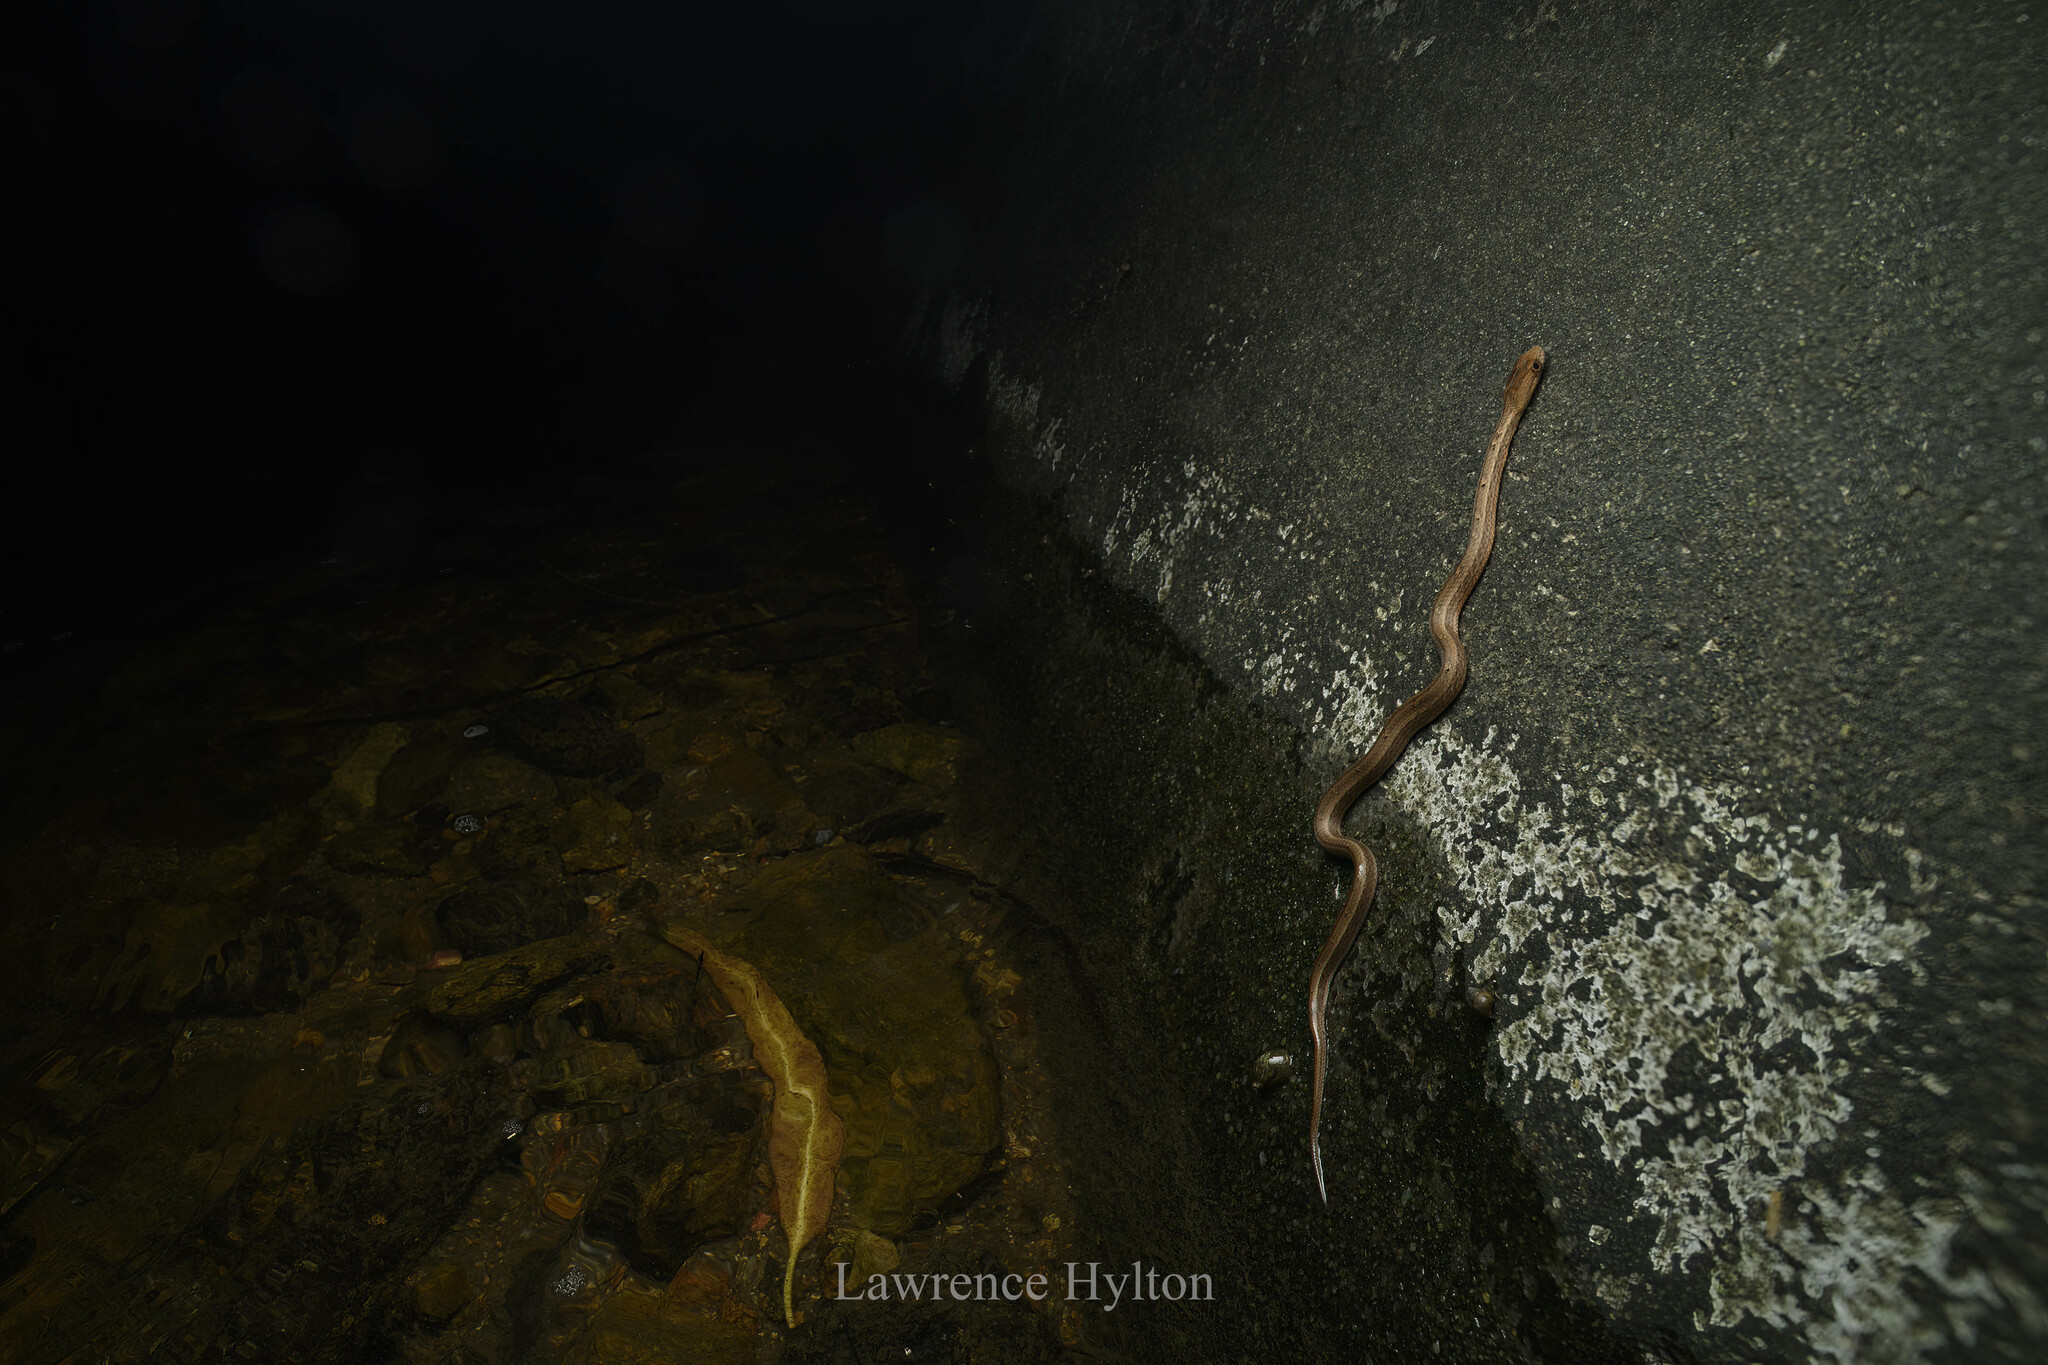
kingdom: Animalia
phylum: Chordata
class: Squamata
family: Pseudaspididae
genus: Psammodynastes
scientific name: Psammodynastes pulverulentus
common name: Common mock viper
